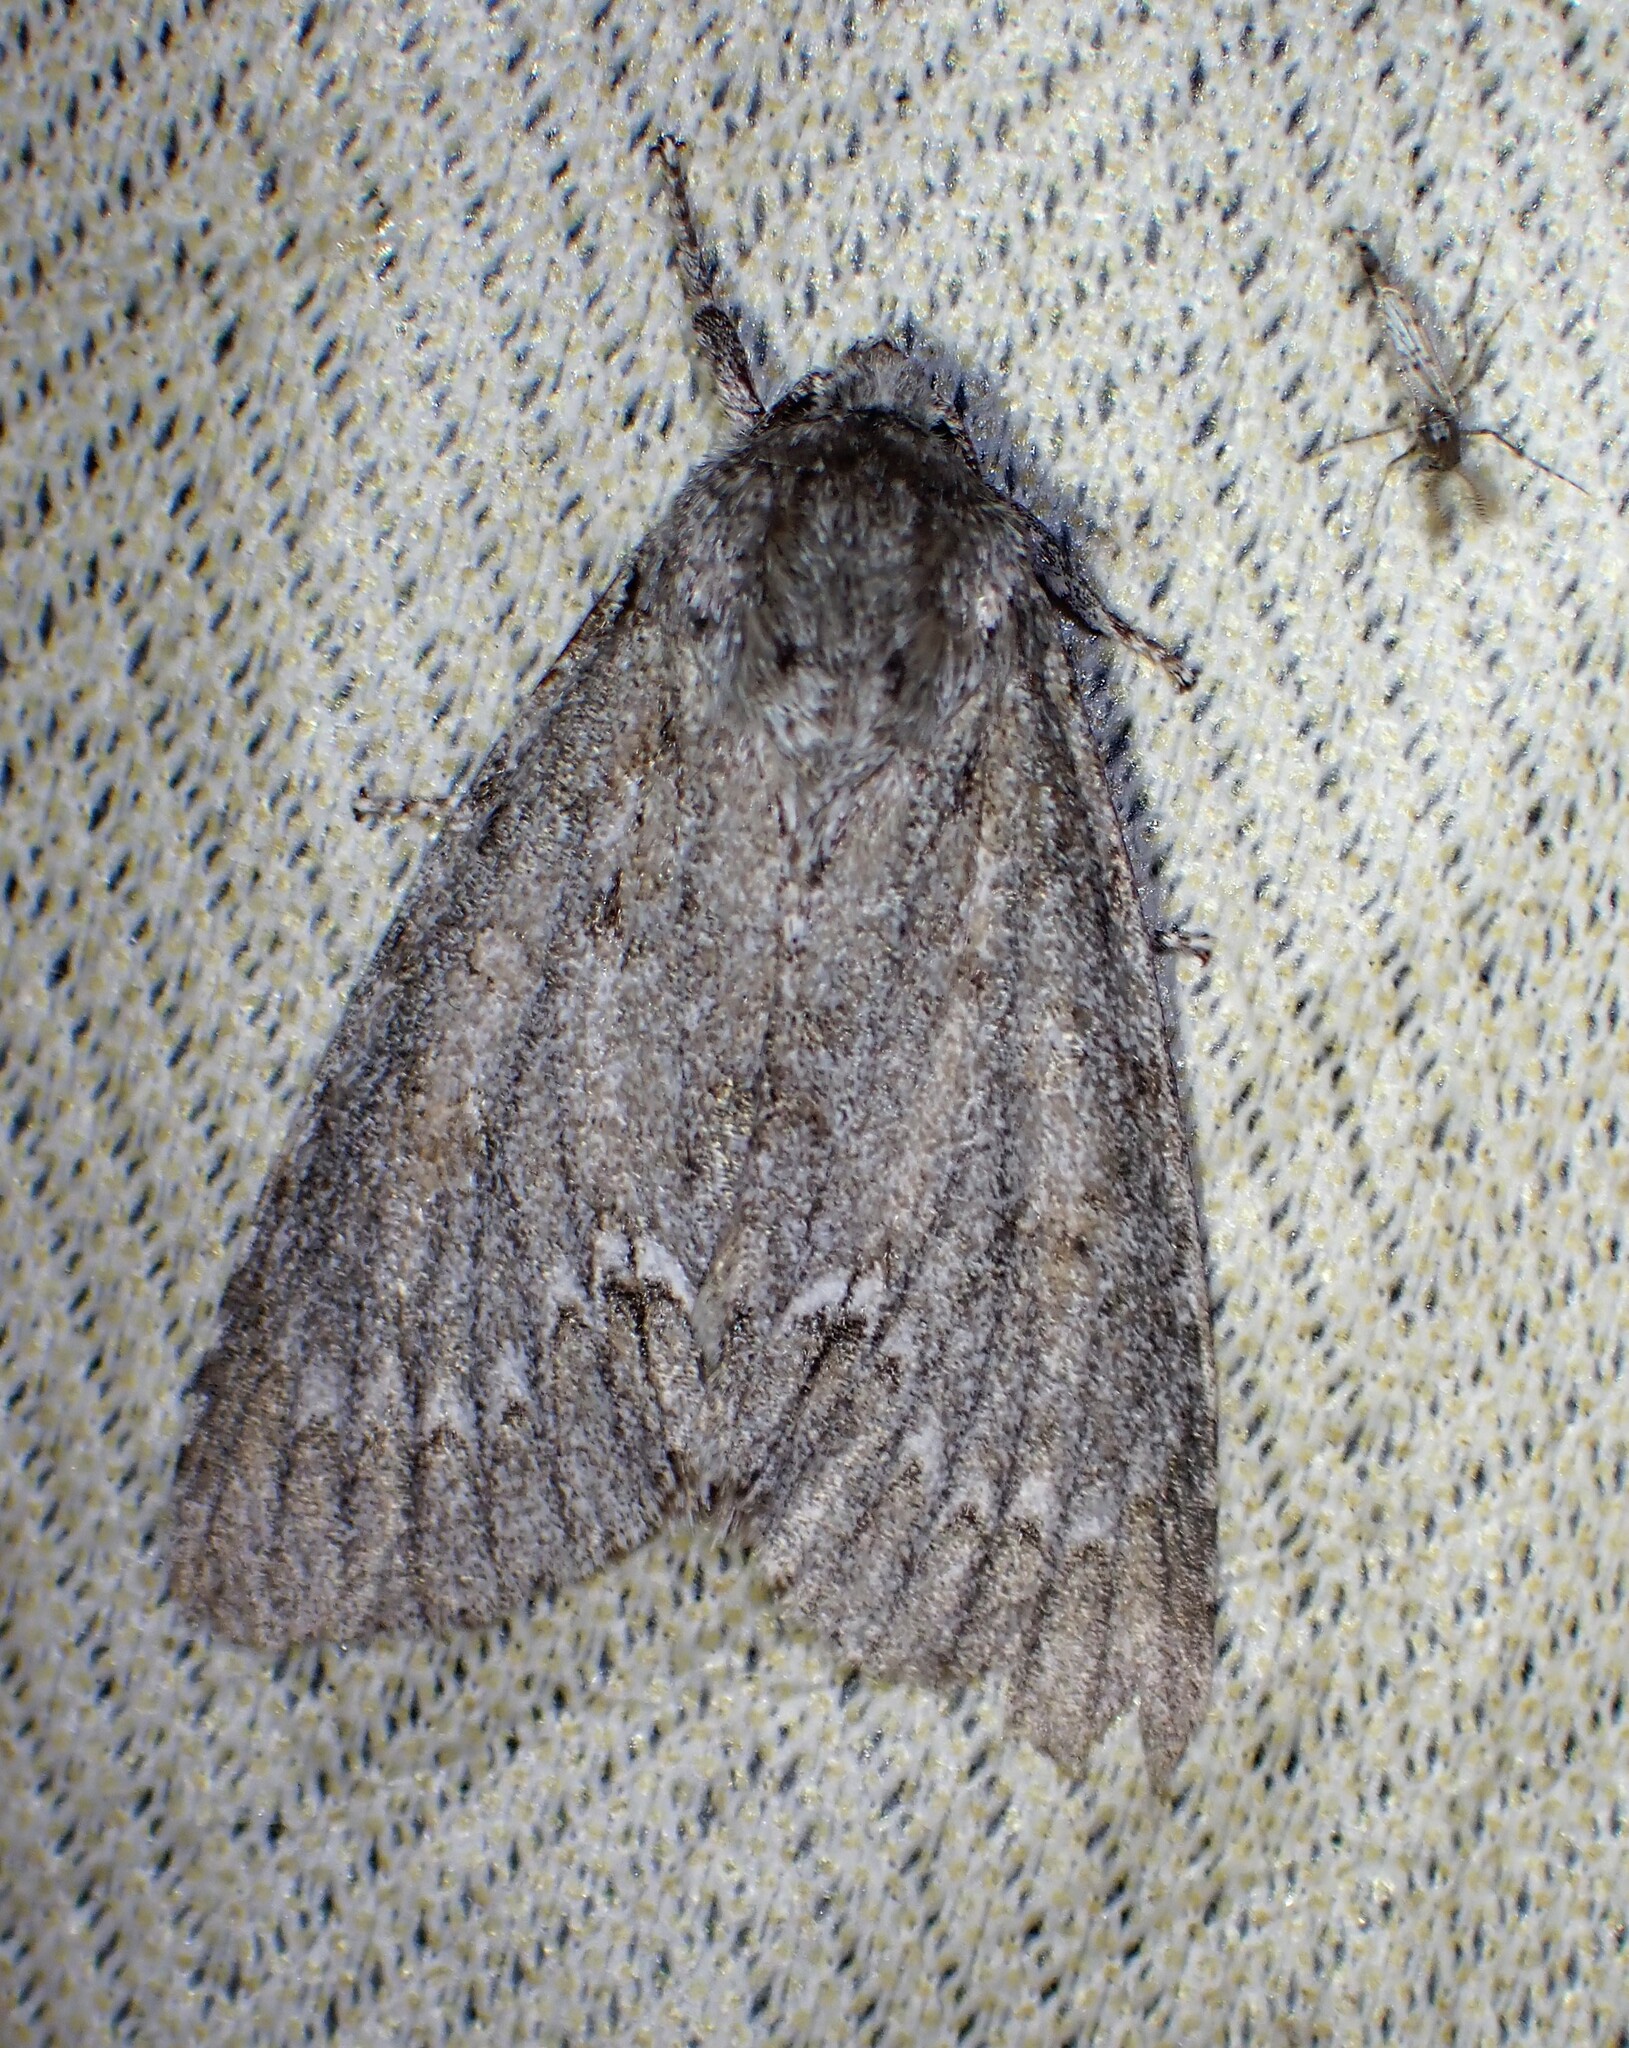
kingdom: Animalia
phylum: Arthropoda
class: Insecta
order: Lepidoptera
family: Noctuidae
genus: Acronicta
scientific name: Acronicta americana
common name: American dagger
